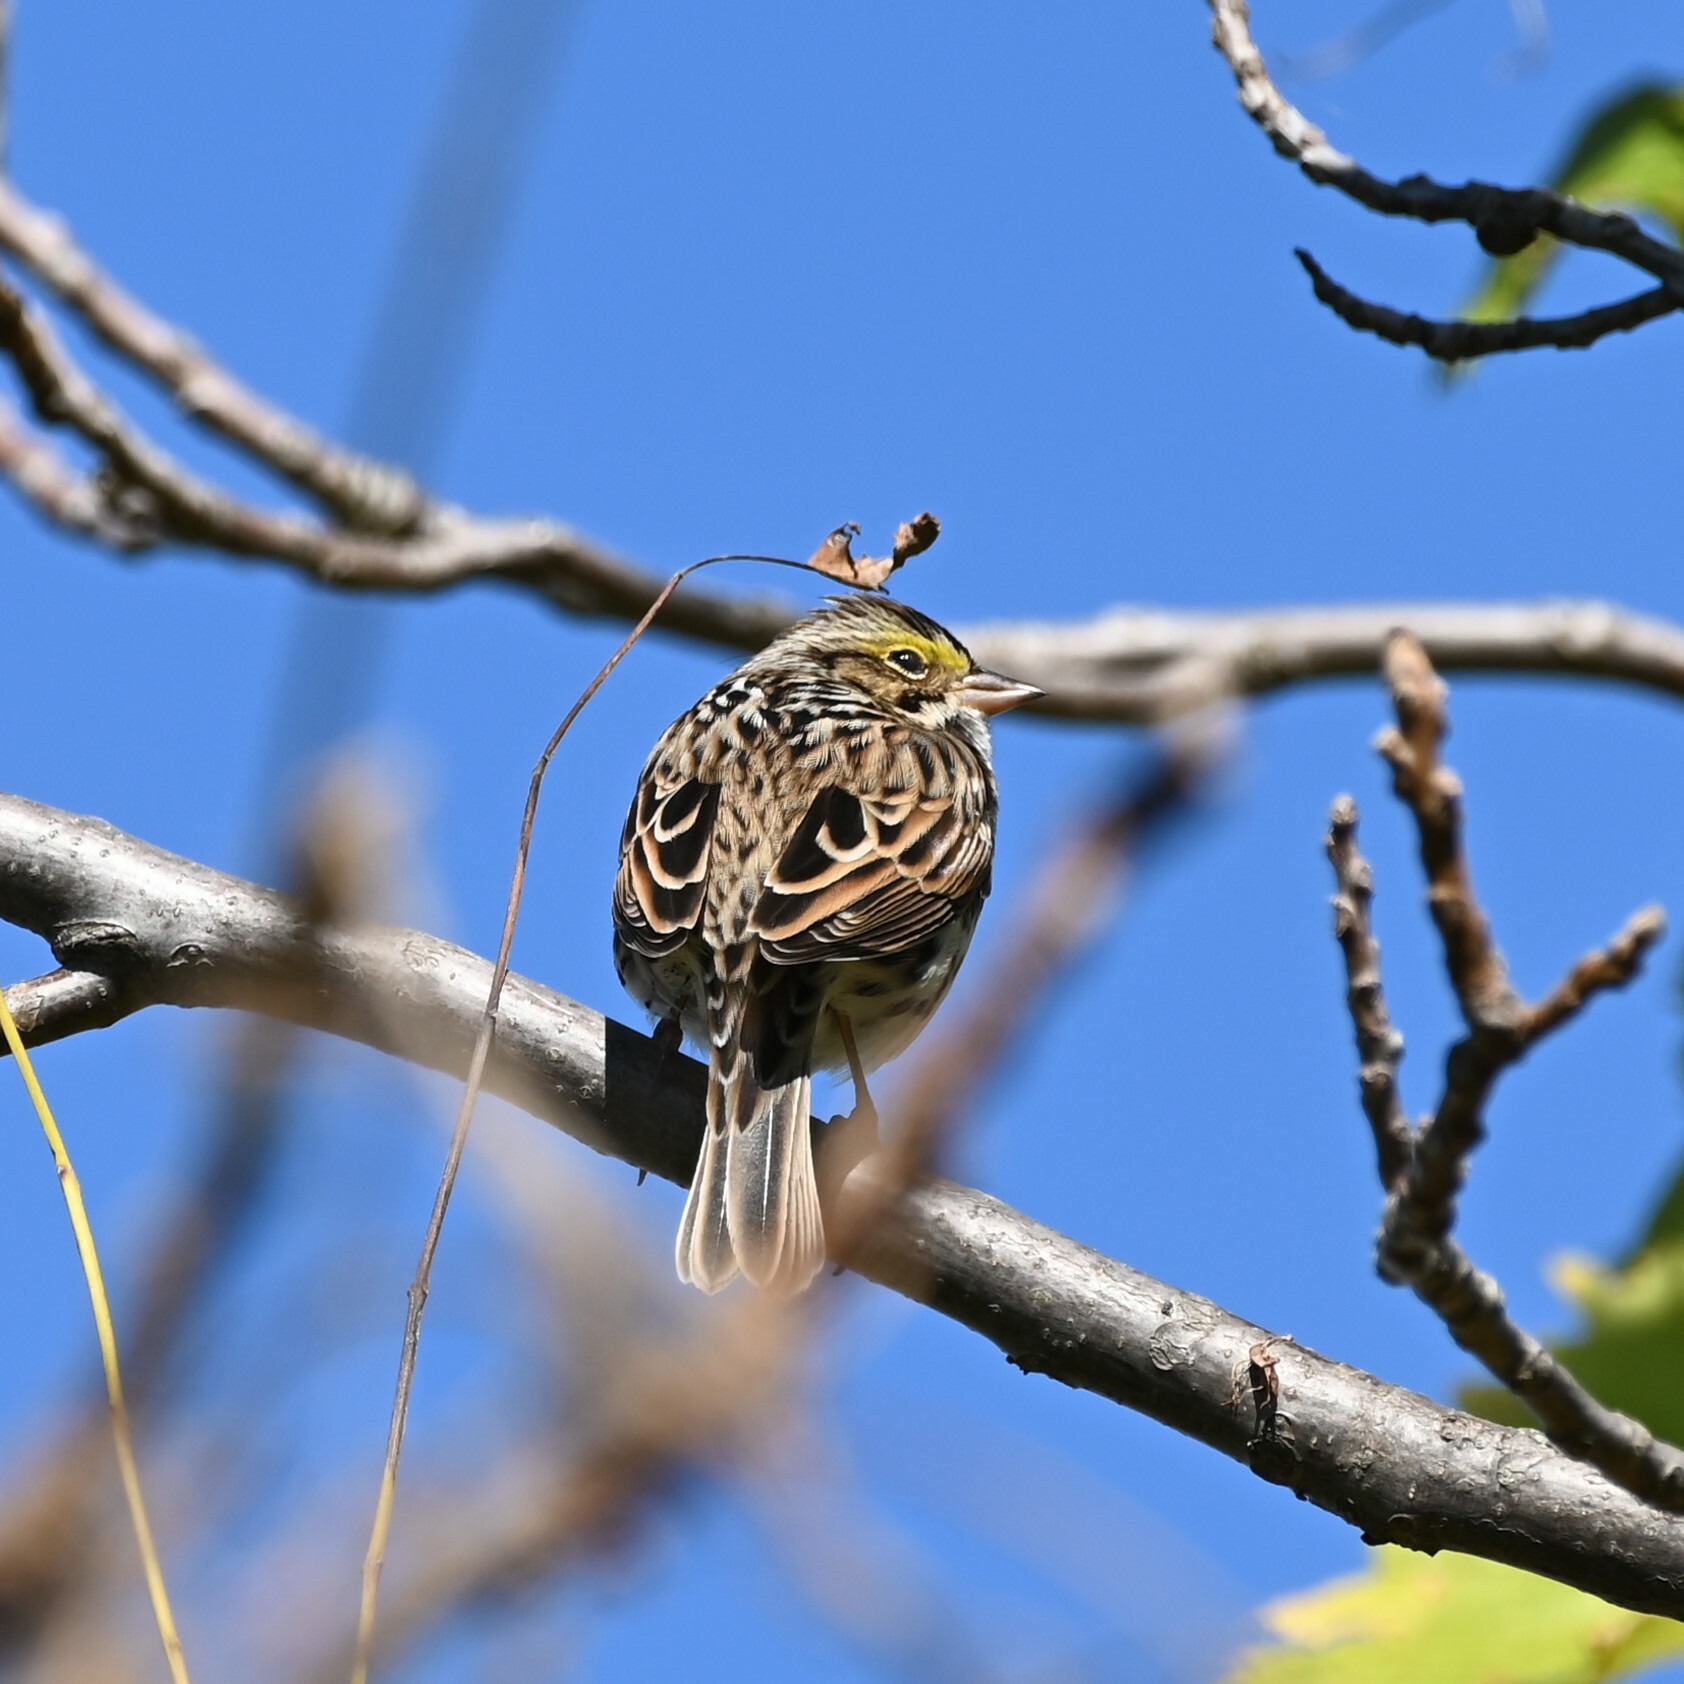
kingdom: Animalia
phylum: Chordata
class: Aves
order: Passeriformes
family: Passerellidae
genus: Passerculus
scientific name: Passerculus sandwichensis
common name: Savannah sparrow
